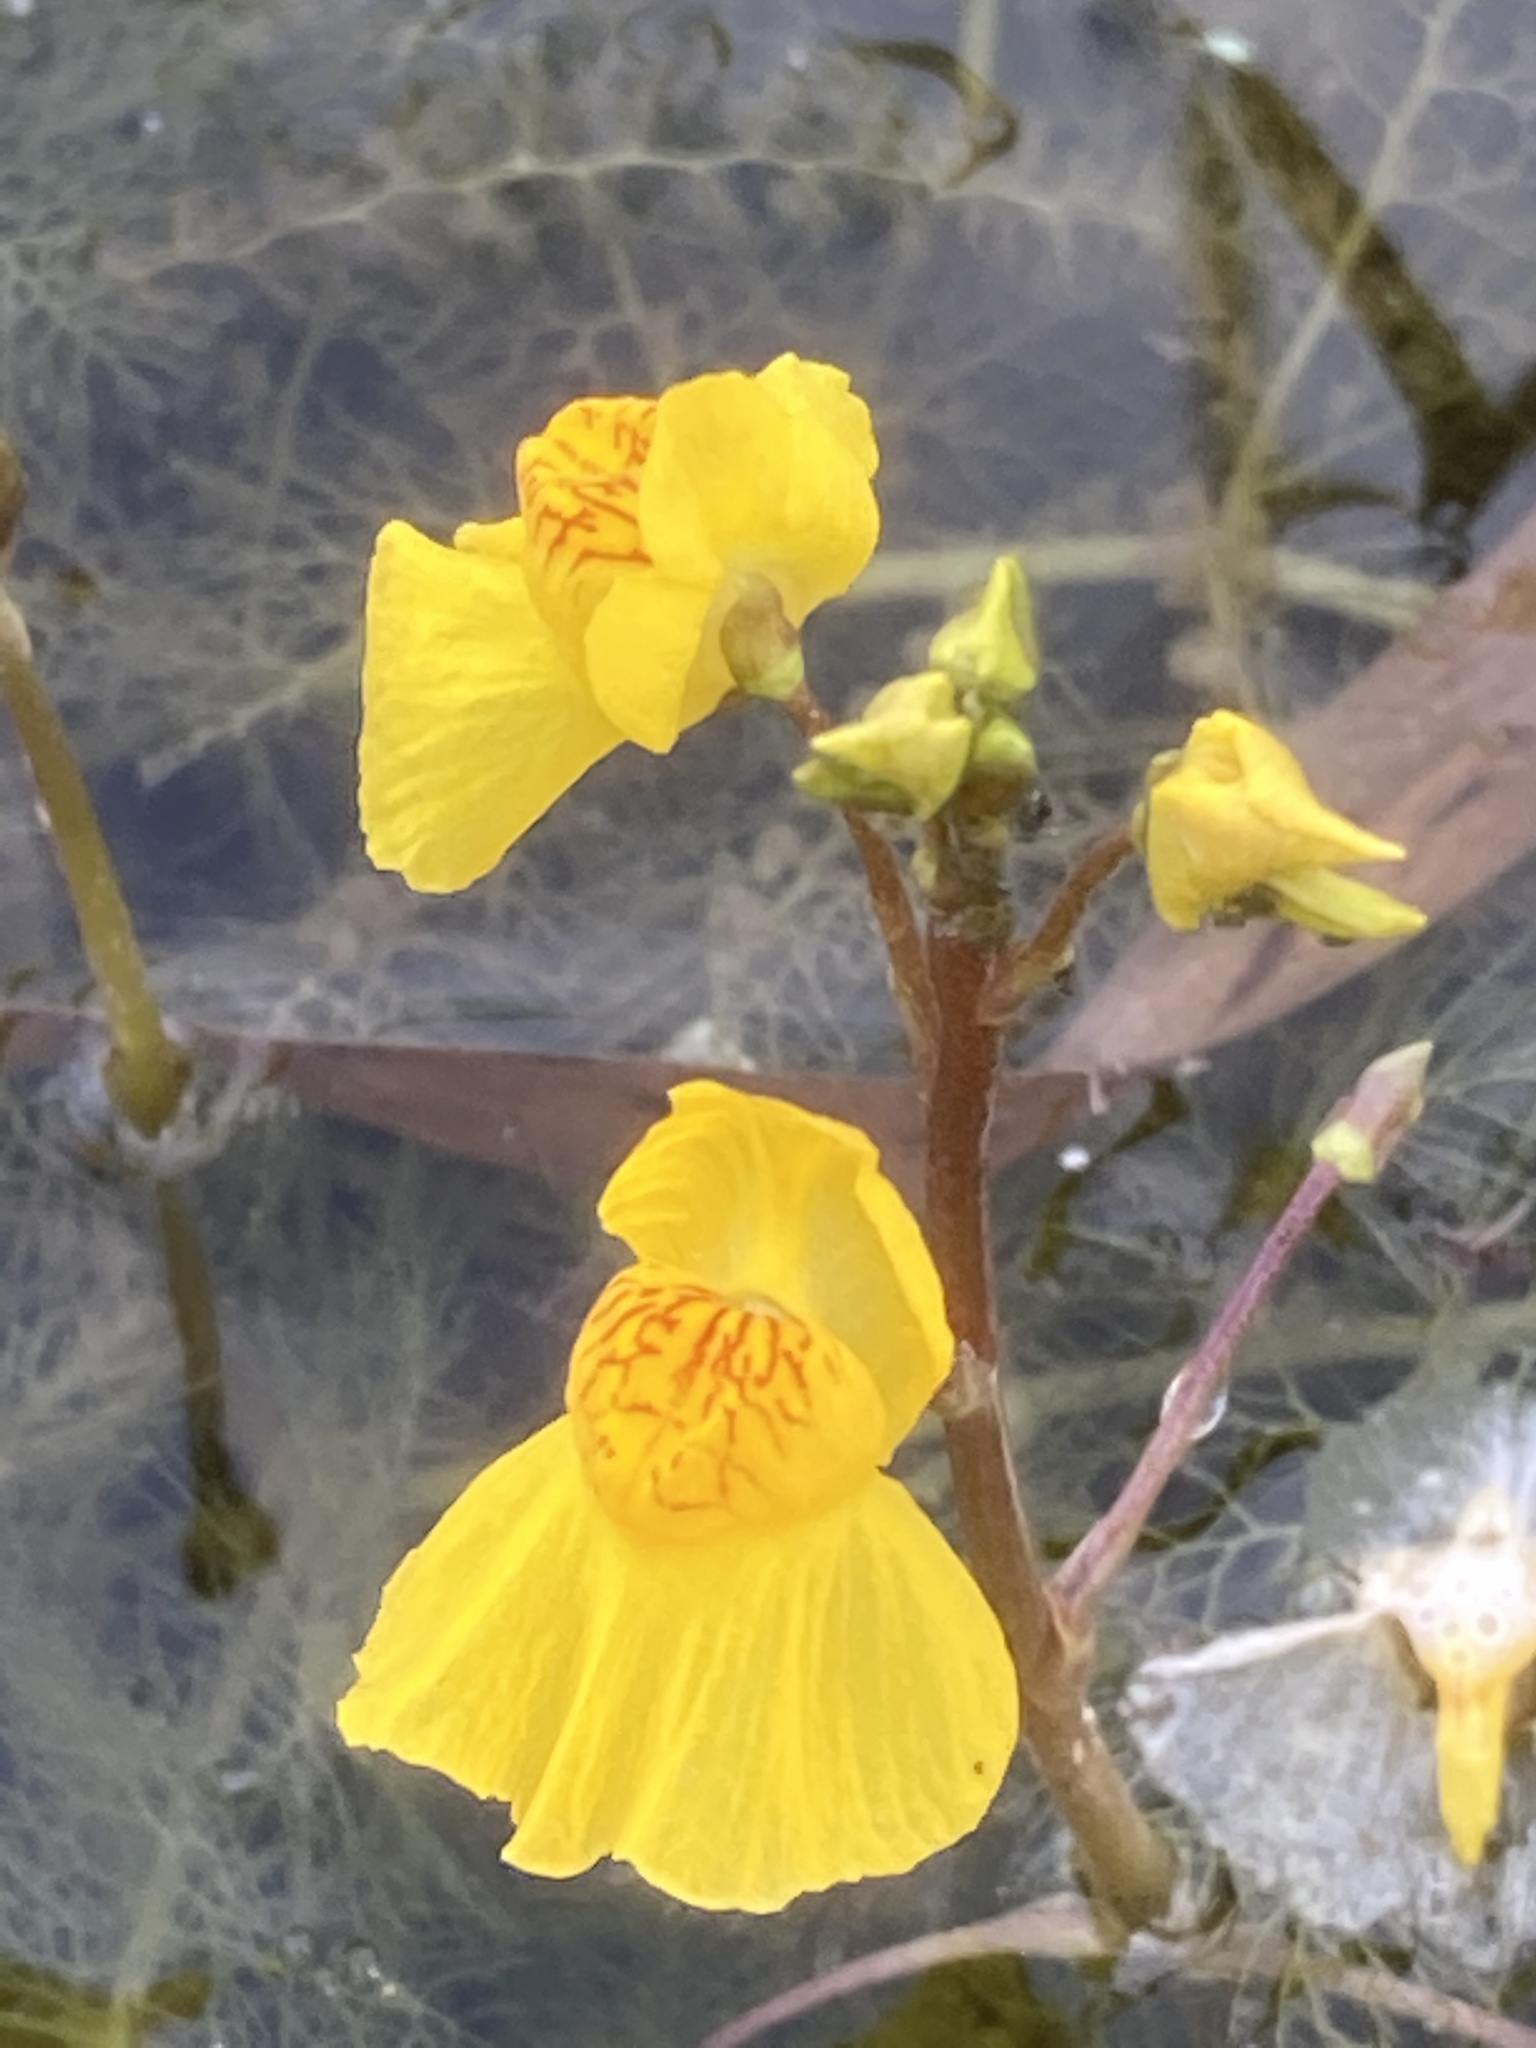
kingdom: Plantae
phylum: Tracheophyta
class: Magnoliopsida
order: Lamiales
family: Lentibulariaceae
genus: Utricularia
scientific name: Utricularia australis
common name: Bladderwort
